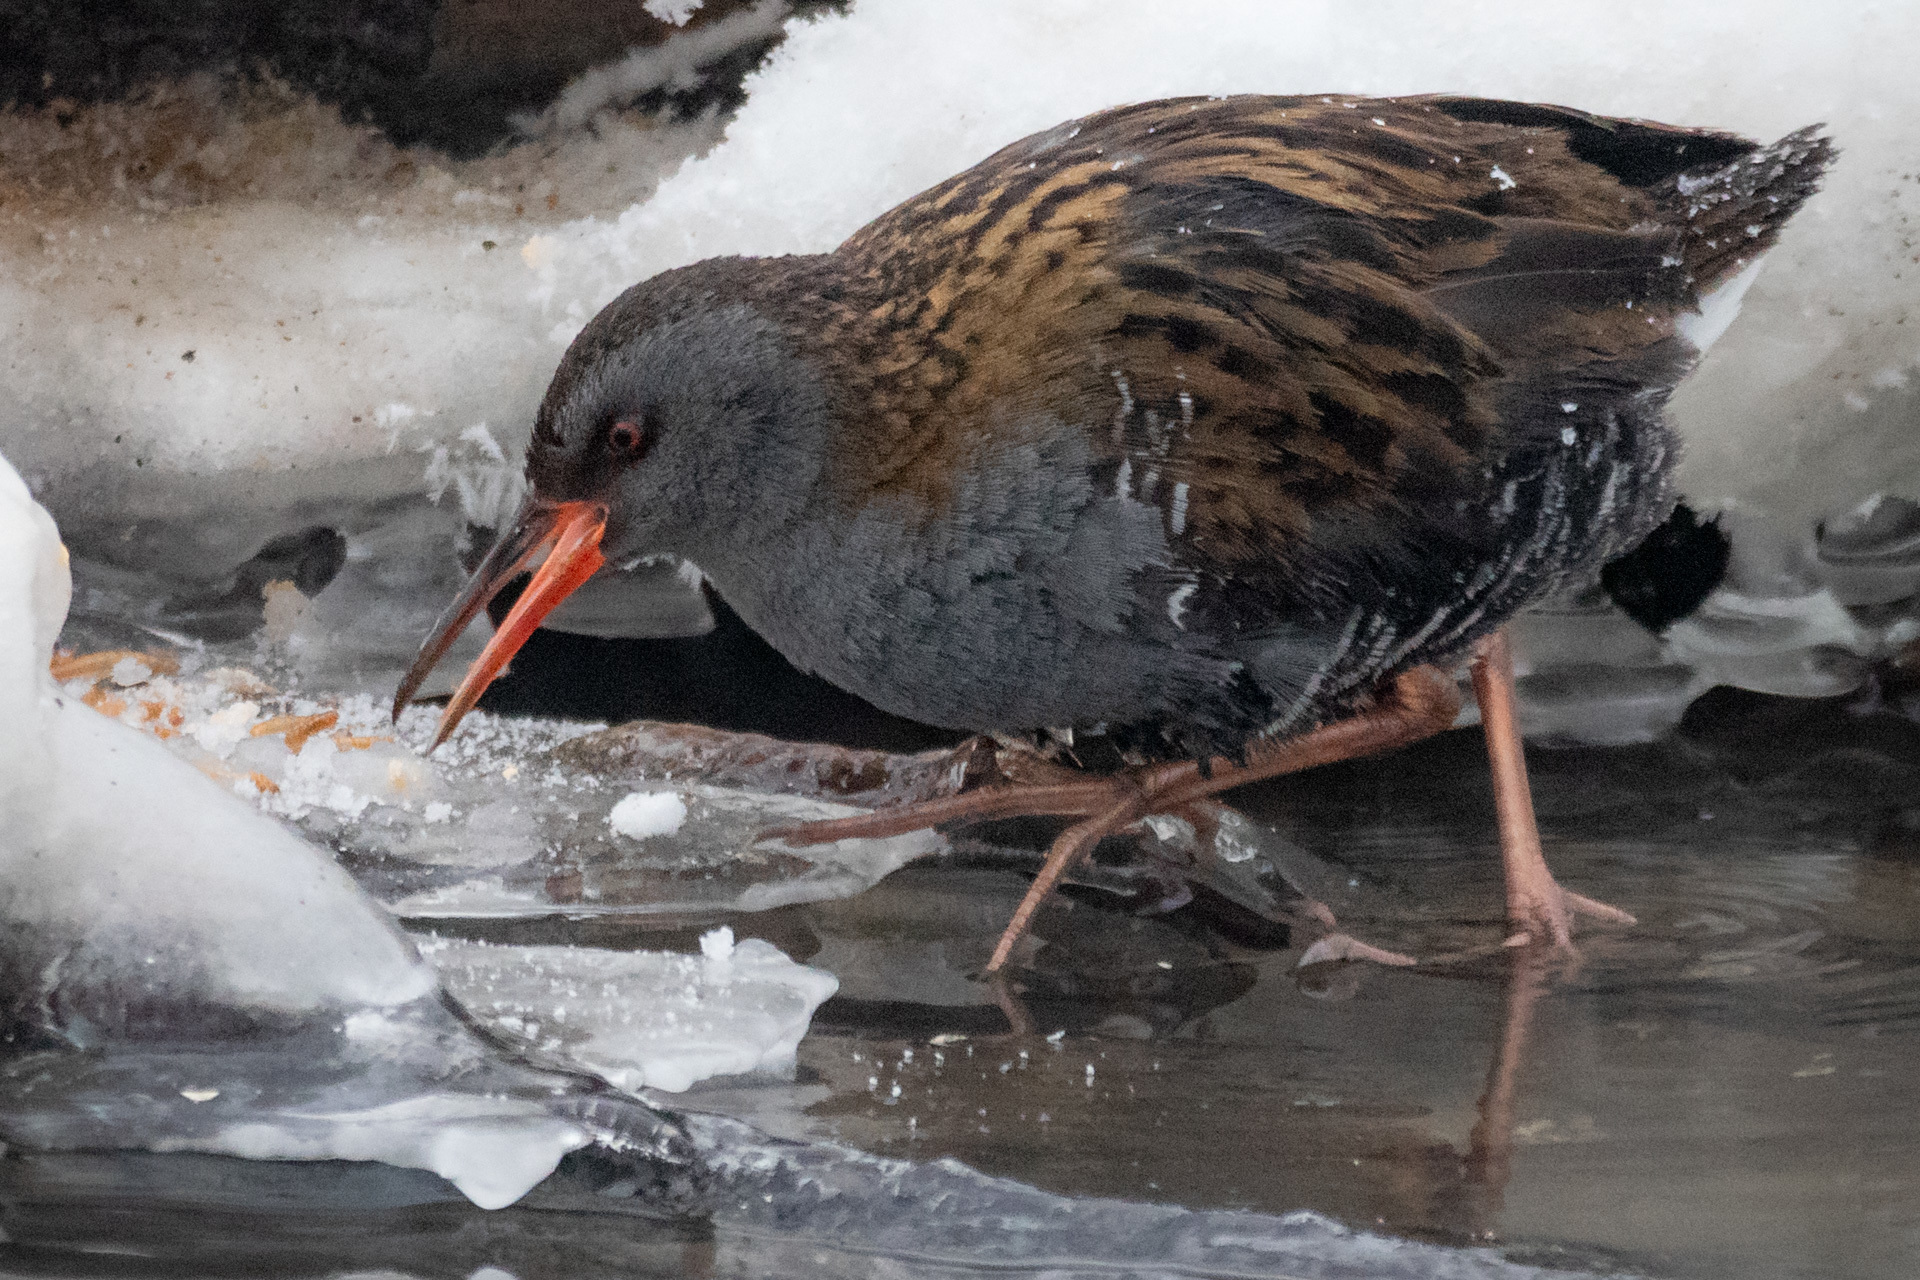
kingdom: Animalia
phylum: Chordata
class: Aves
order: Gruiformes
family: Rallidae
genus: Rallus
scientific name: Rallus aquaticus
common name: Water rail
